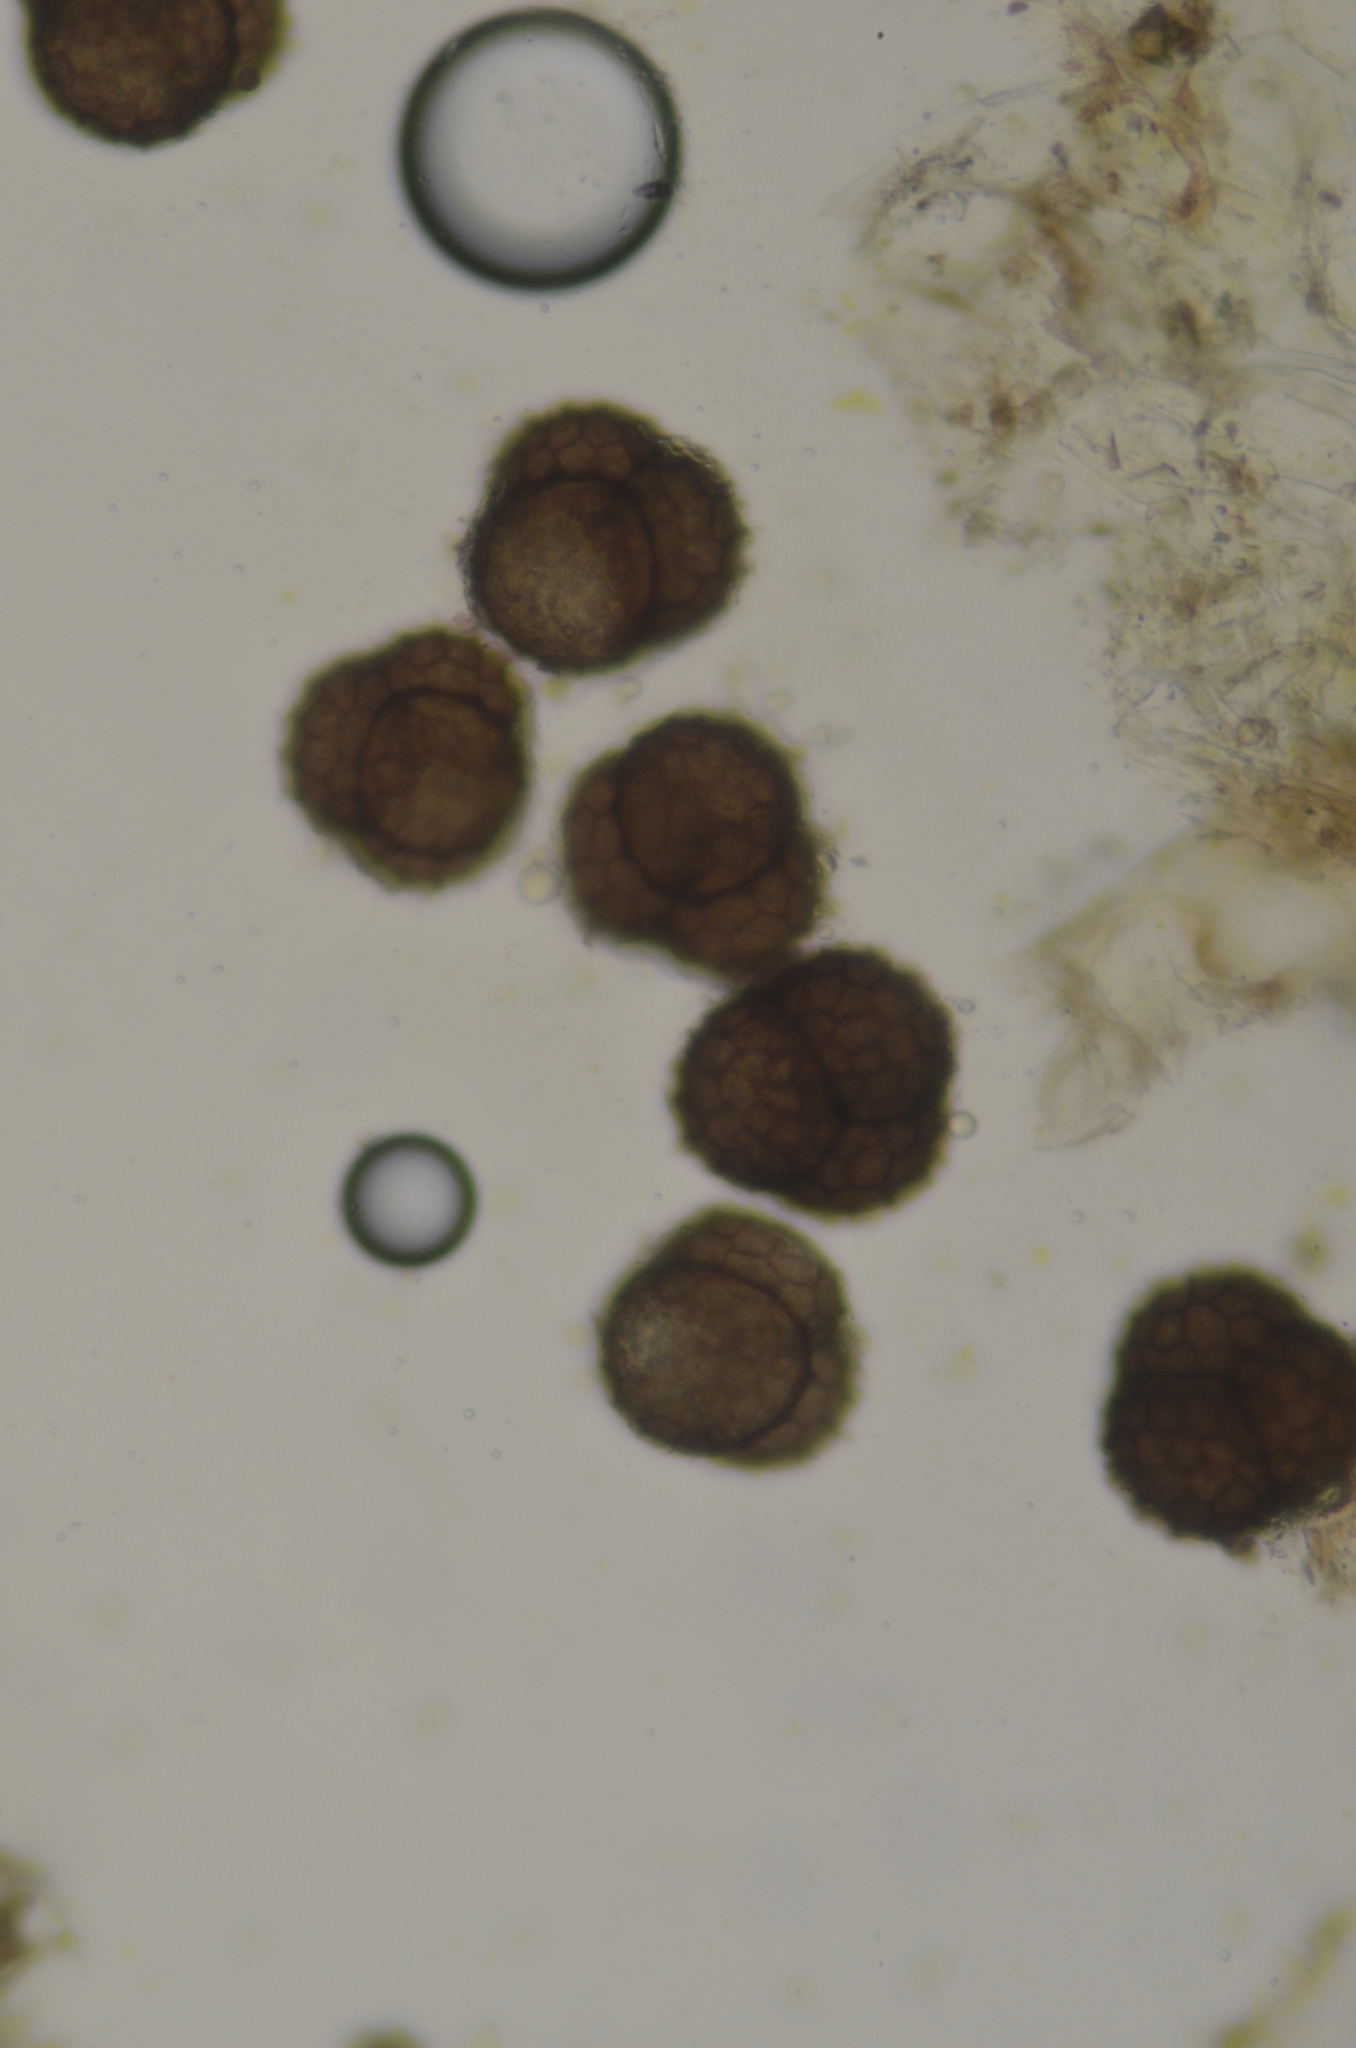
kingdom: Plantae
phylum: Marchantiophyta
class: Marchantiopsida
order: Sphaerocarpales
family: Sphaerocarpaceae
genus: Sphaerocarpos
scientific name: Sphaerocarpos texanus
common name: Texas balloonwort
